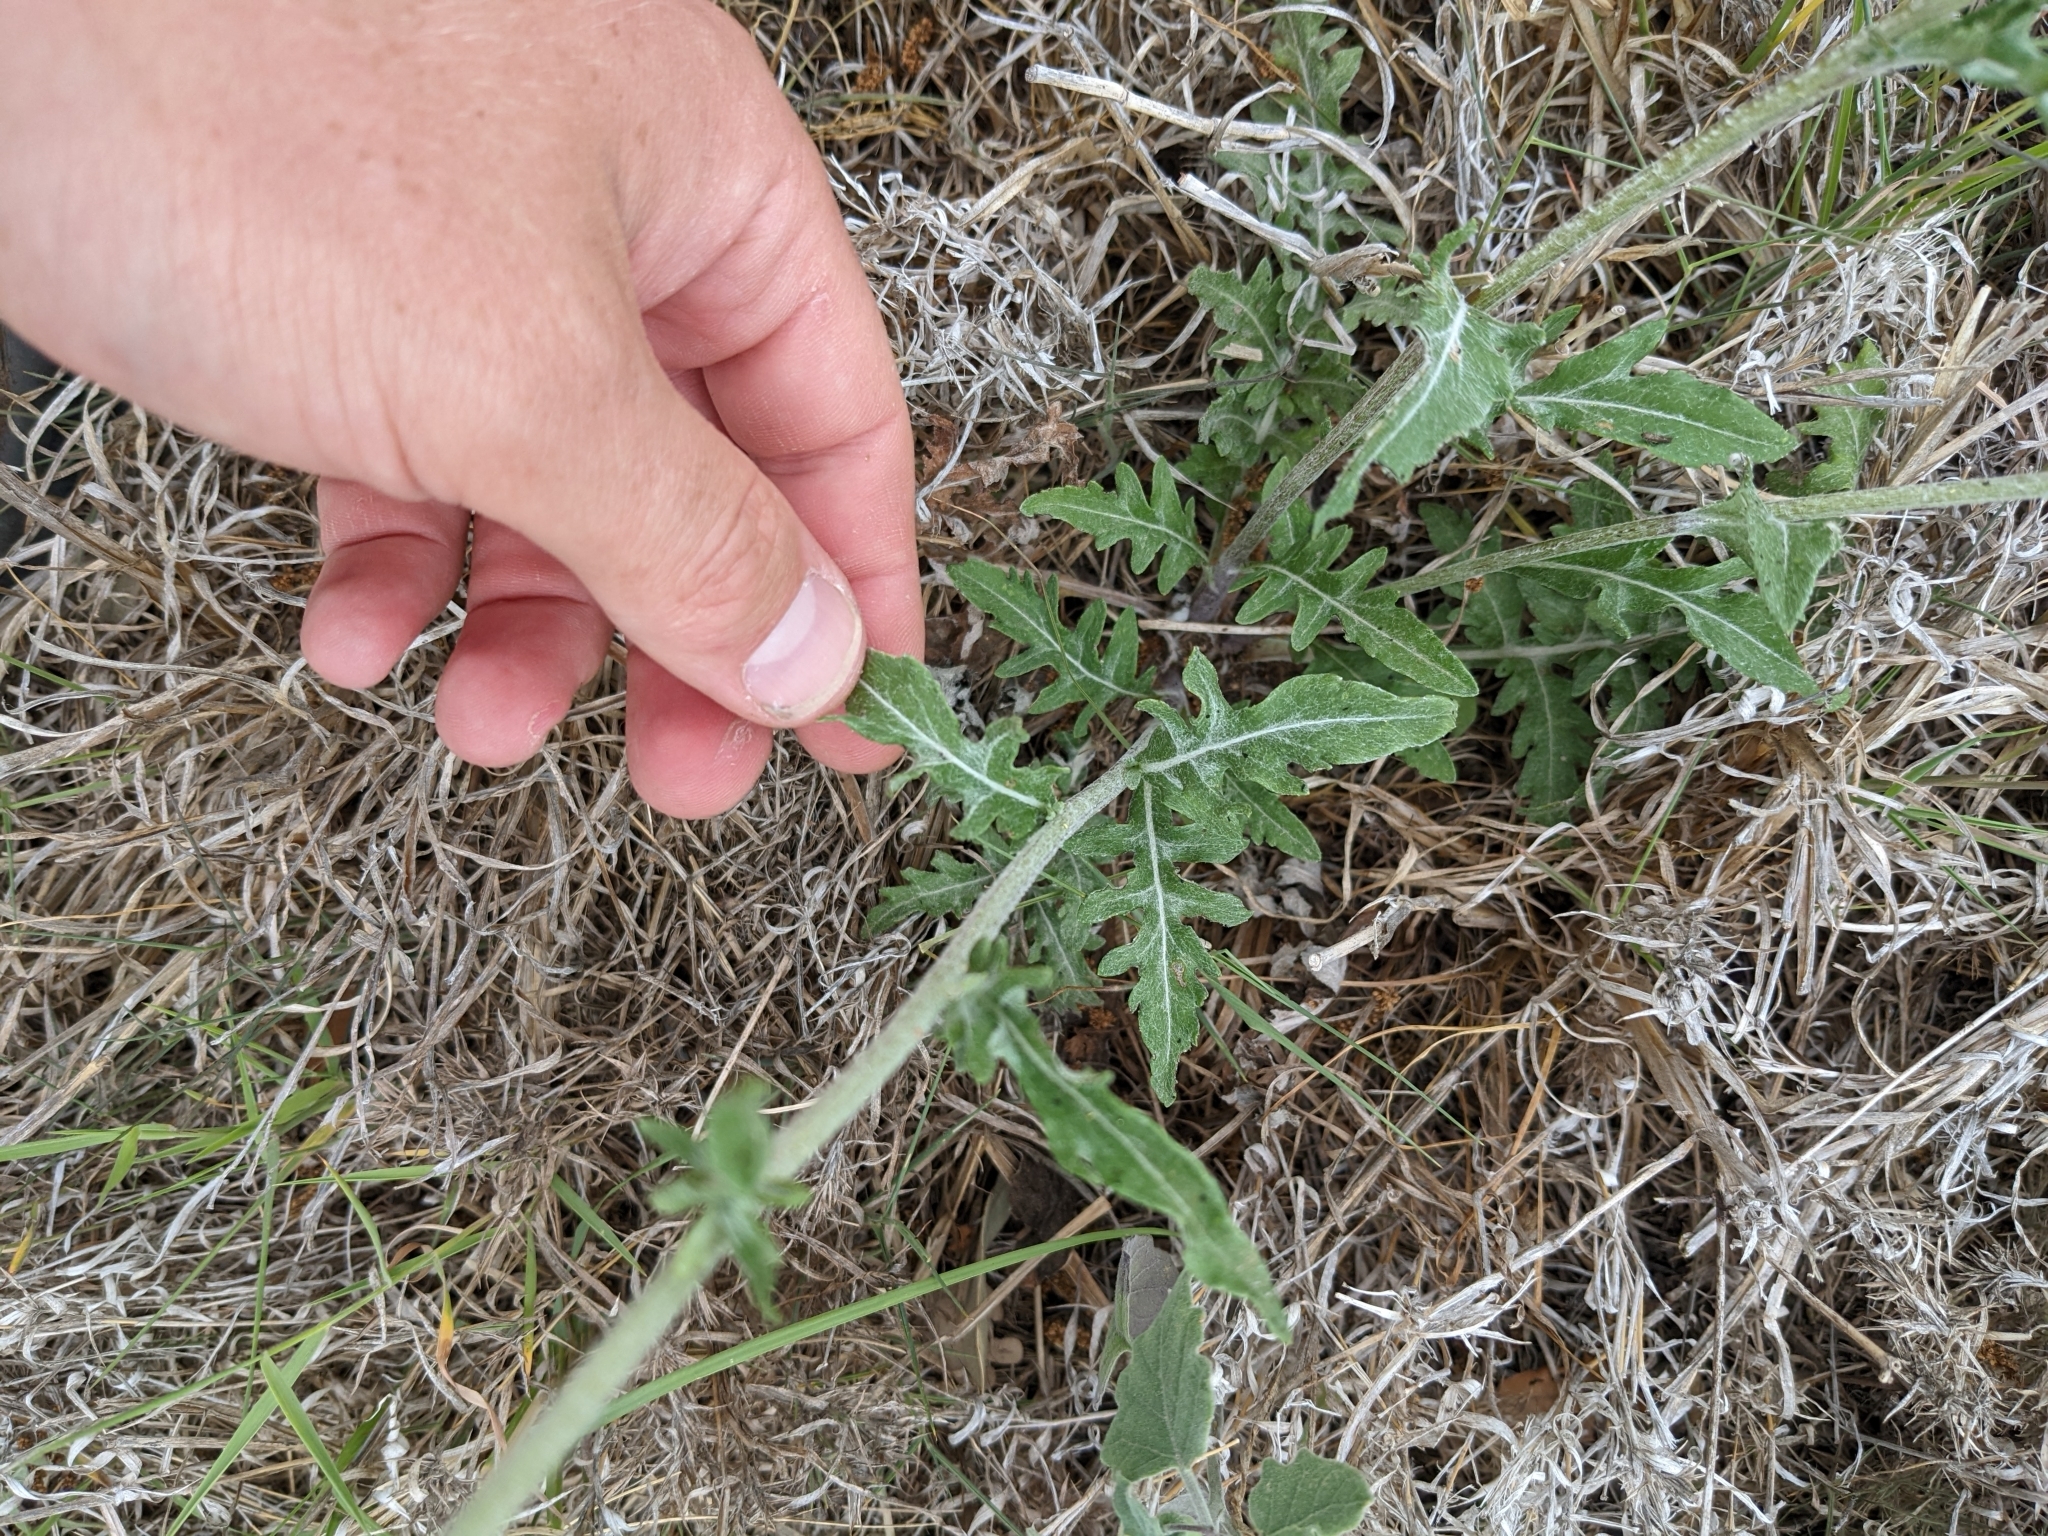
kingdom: Plantae
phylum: Tracheophyta
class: Magnoliopsida
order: Asterales
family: Asteraceae
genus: Hymenopappus
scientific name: Hymenopappus artemisiifolius
